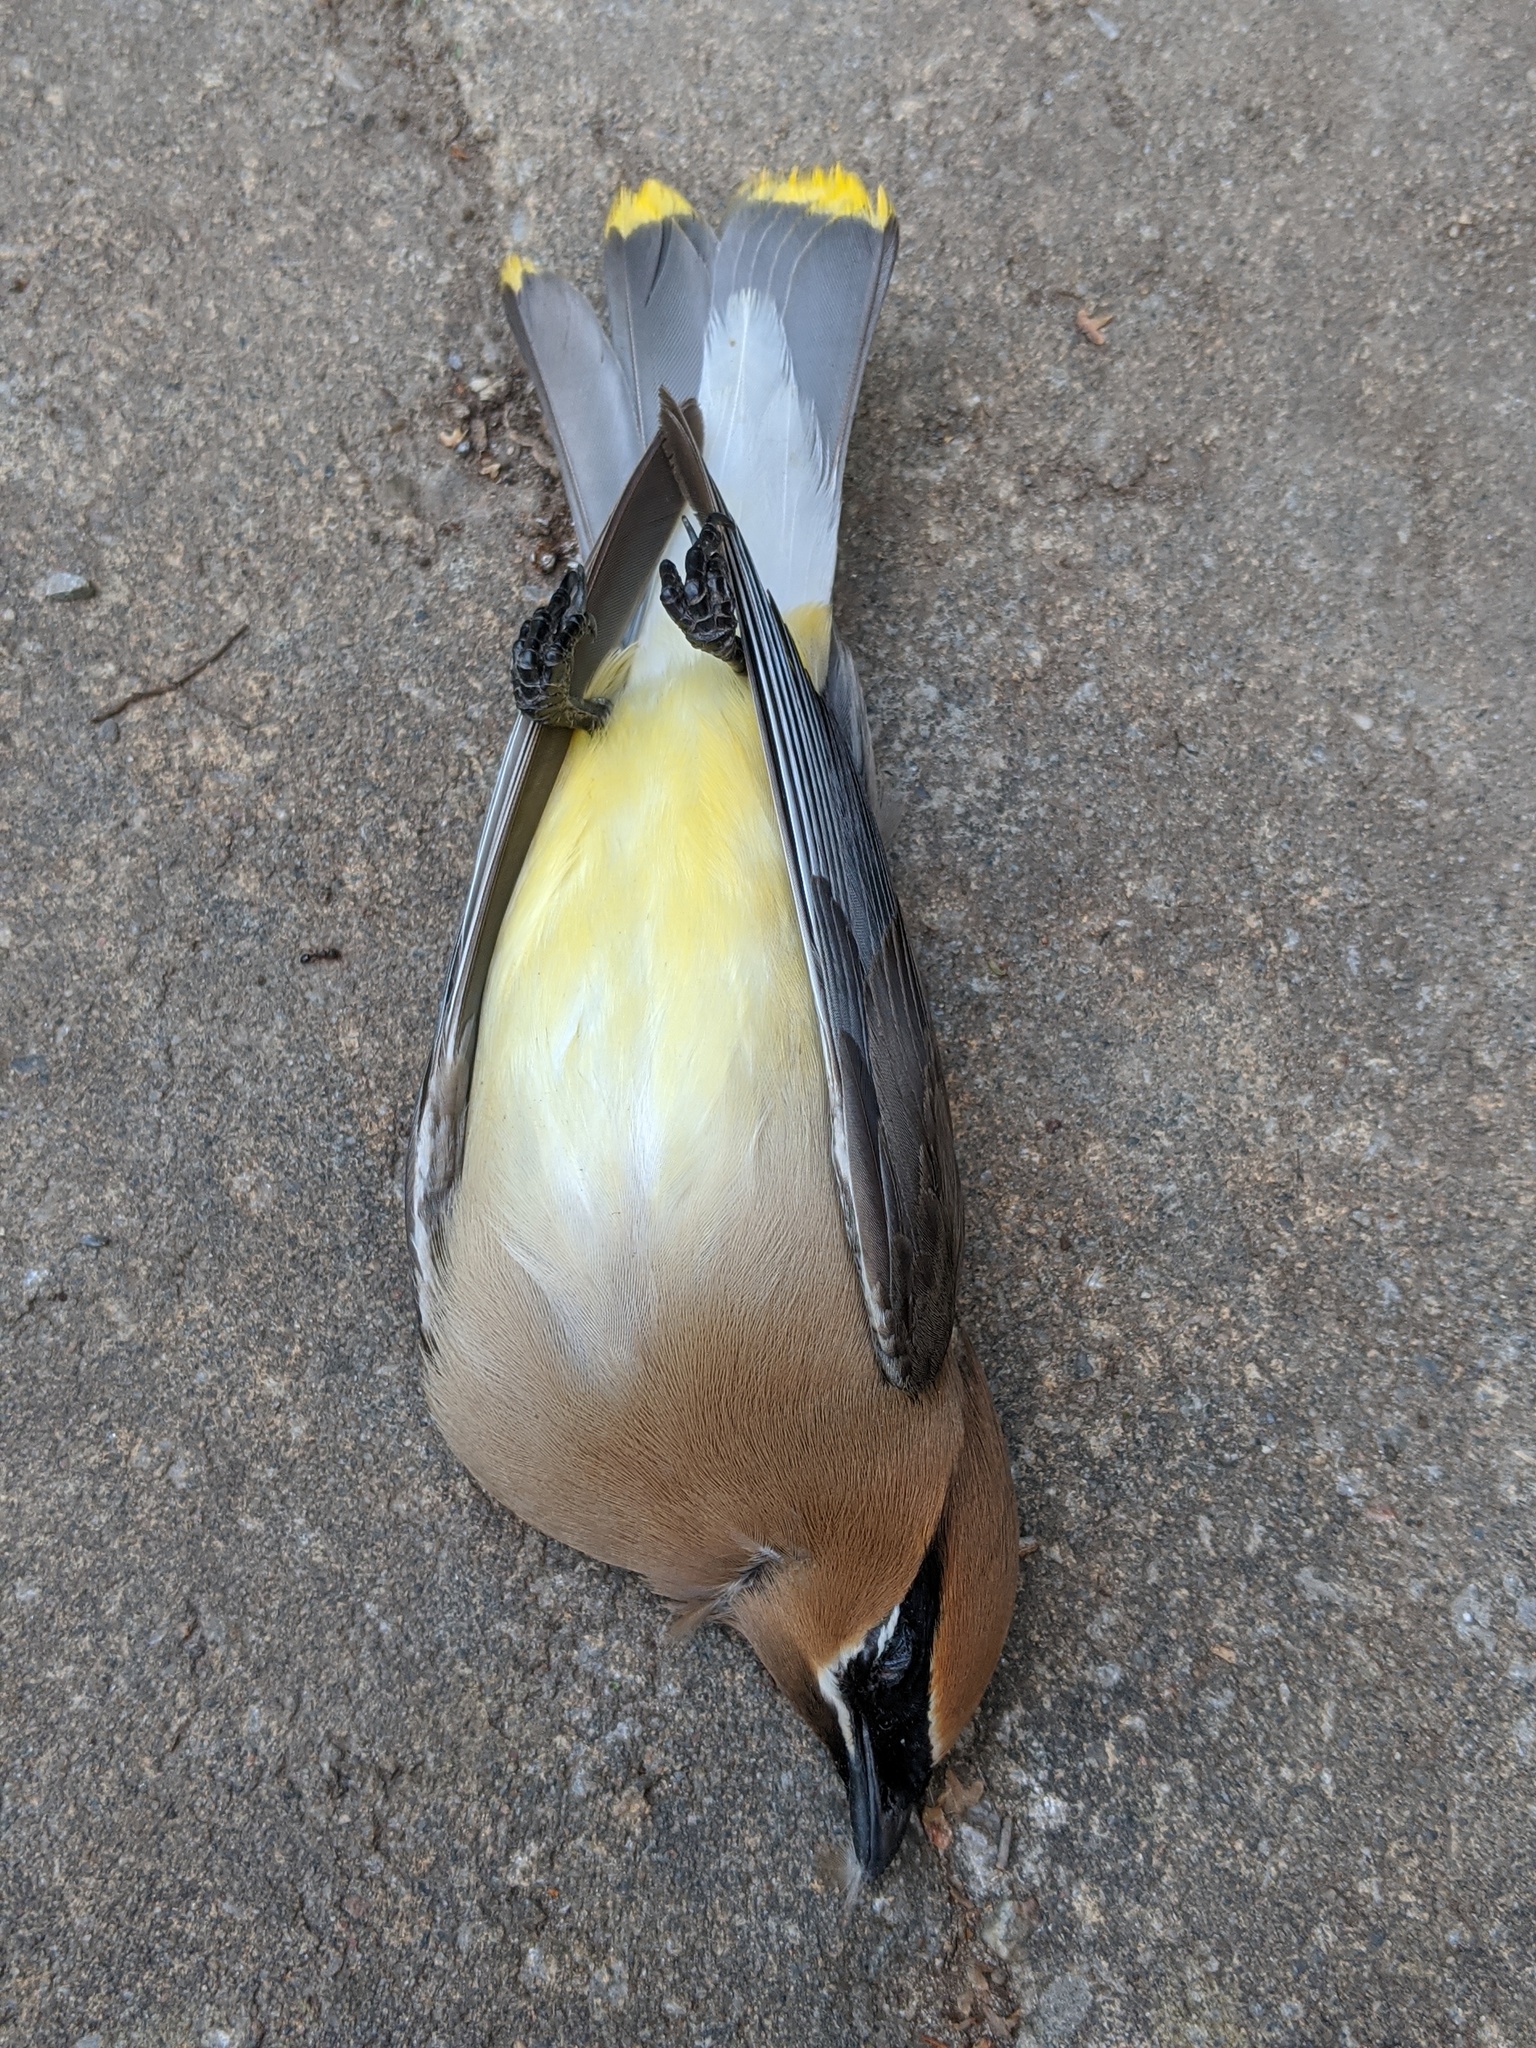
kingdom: Animalia
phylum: Chordata
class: Aves
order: Passeriformes
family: Bombycillidae
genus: Bombycilla
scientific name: Bombycilla cedrorum
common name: Cedar waxwing
